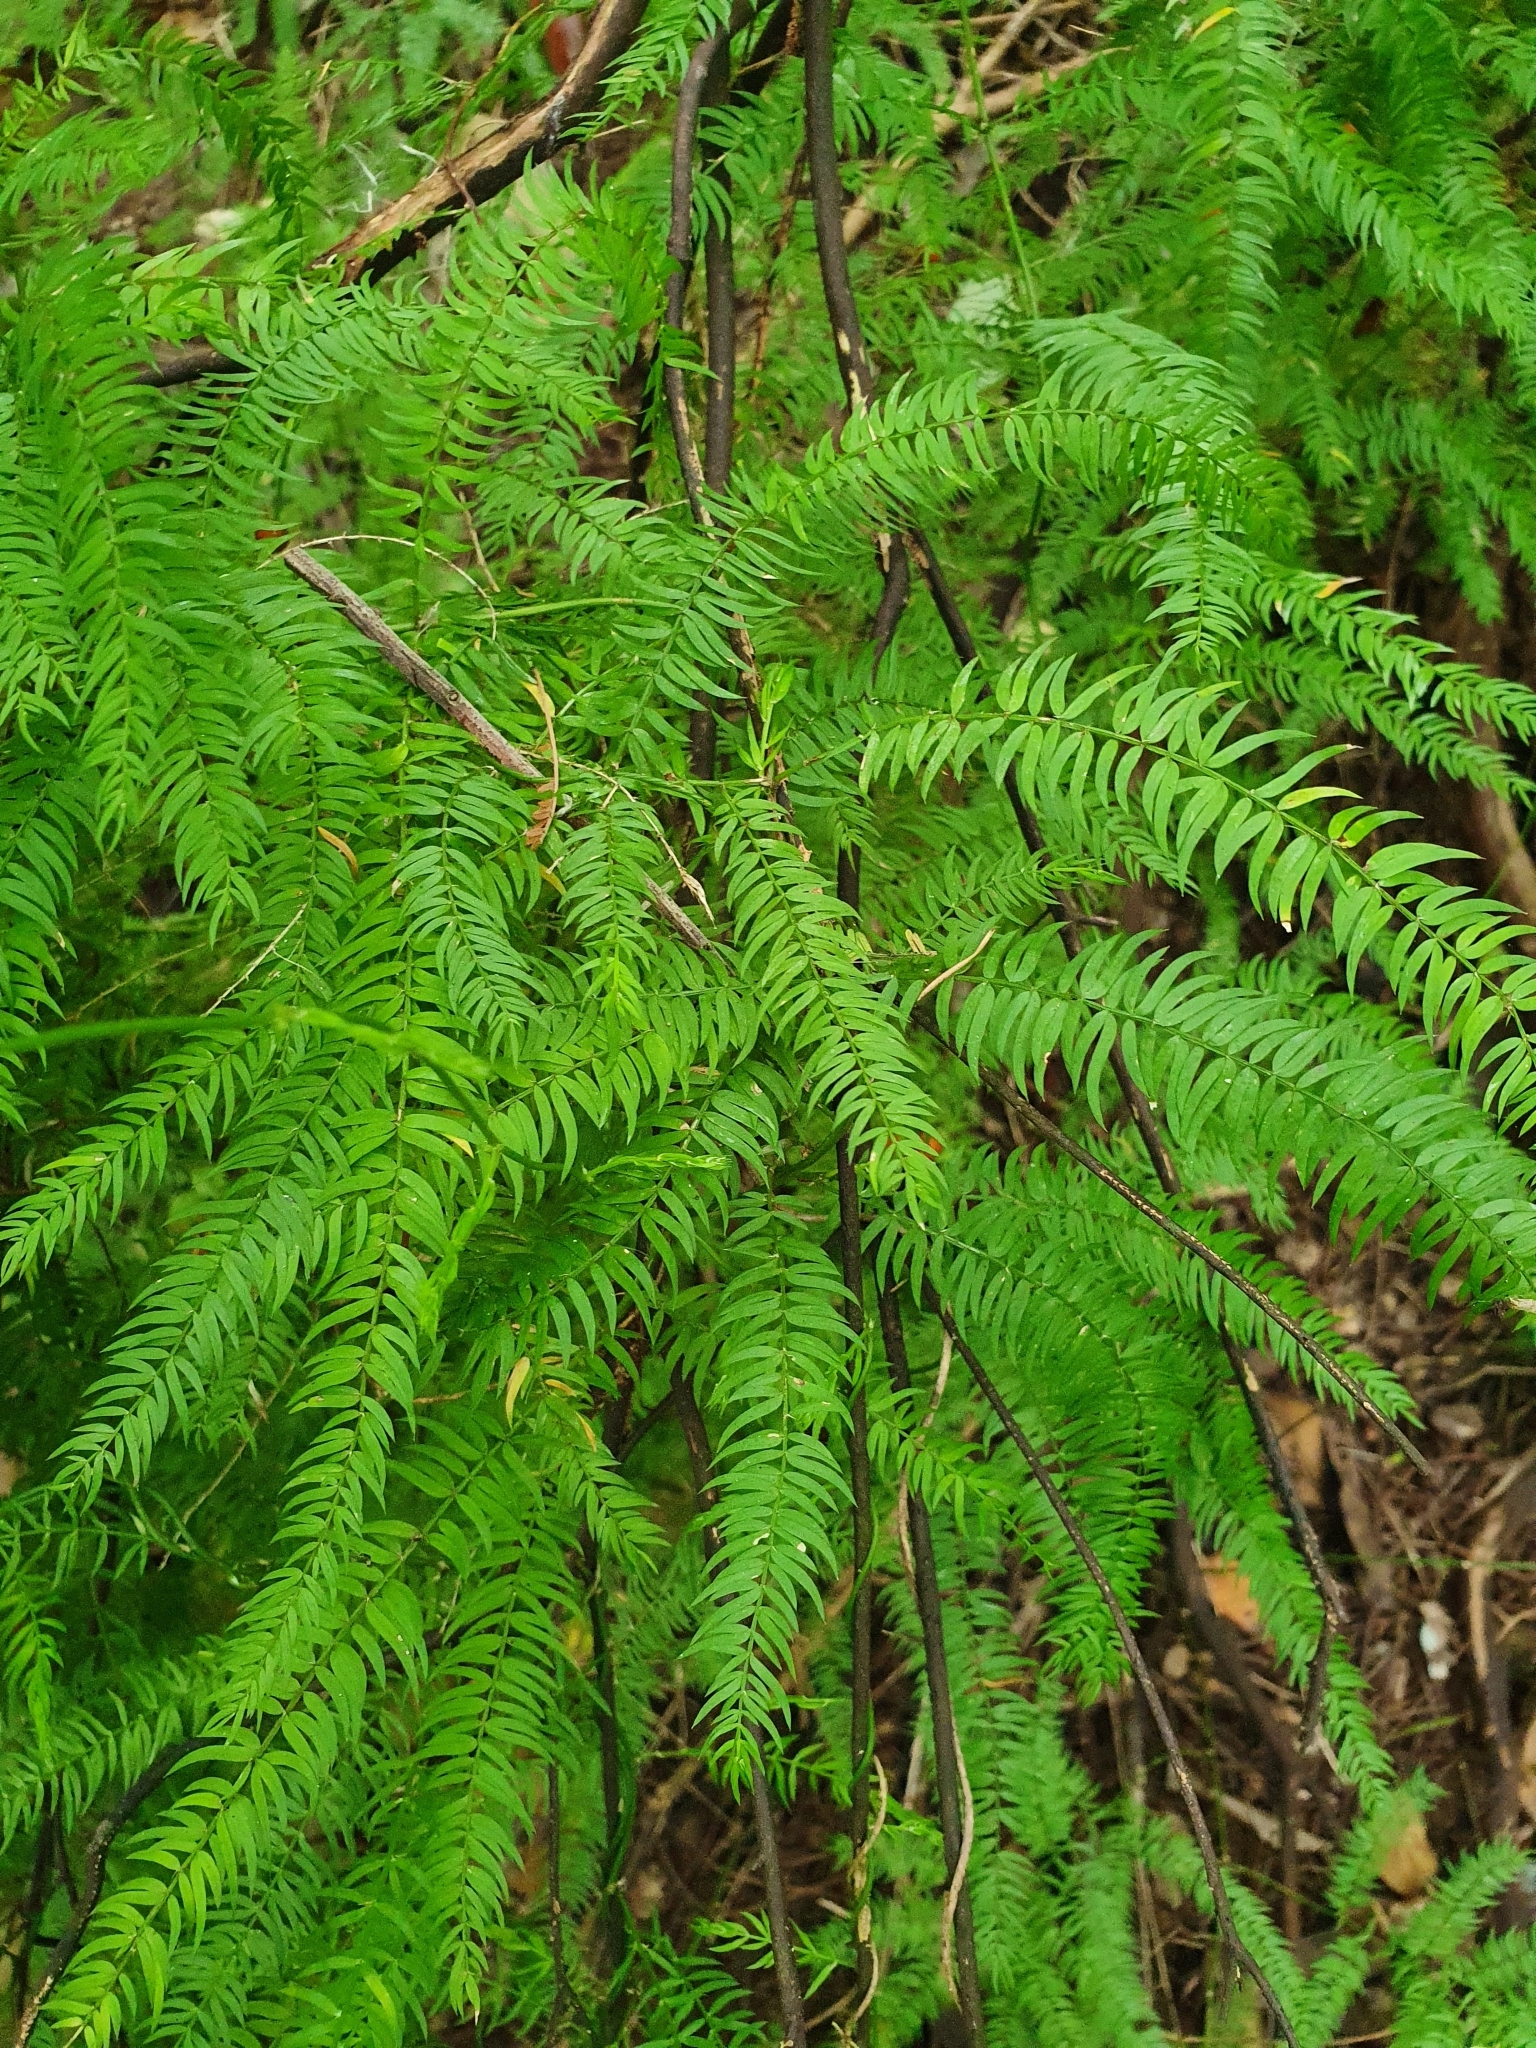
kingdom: Plantae
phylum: Tracheophyta
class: Liliopsida
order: Asparagales
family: Asparagaceae
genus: Asparagus
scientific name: Asparagus scandens
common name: Asparagus-fern
